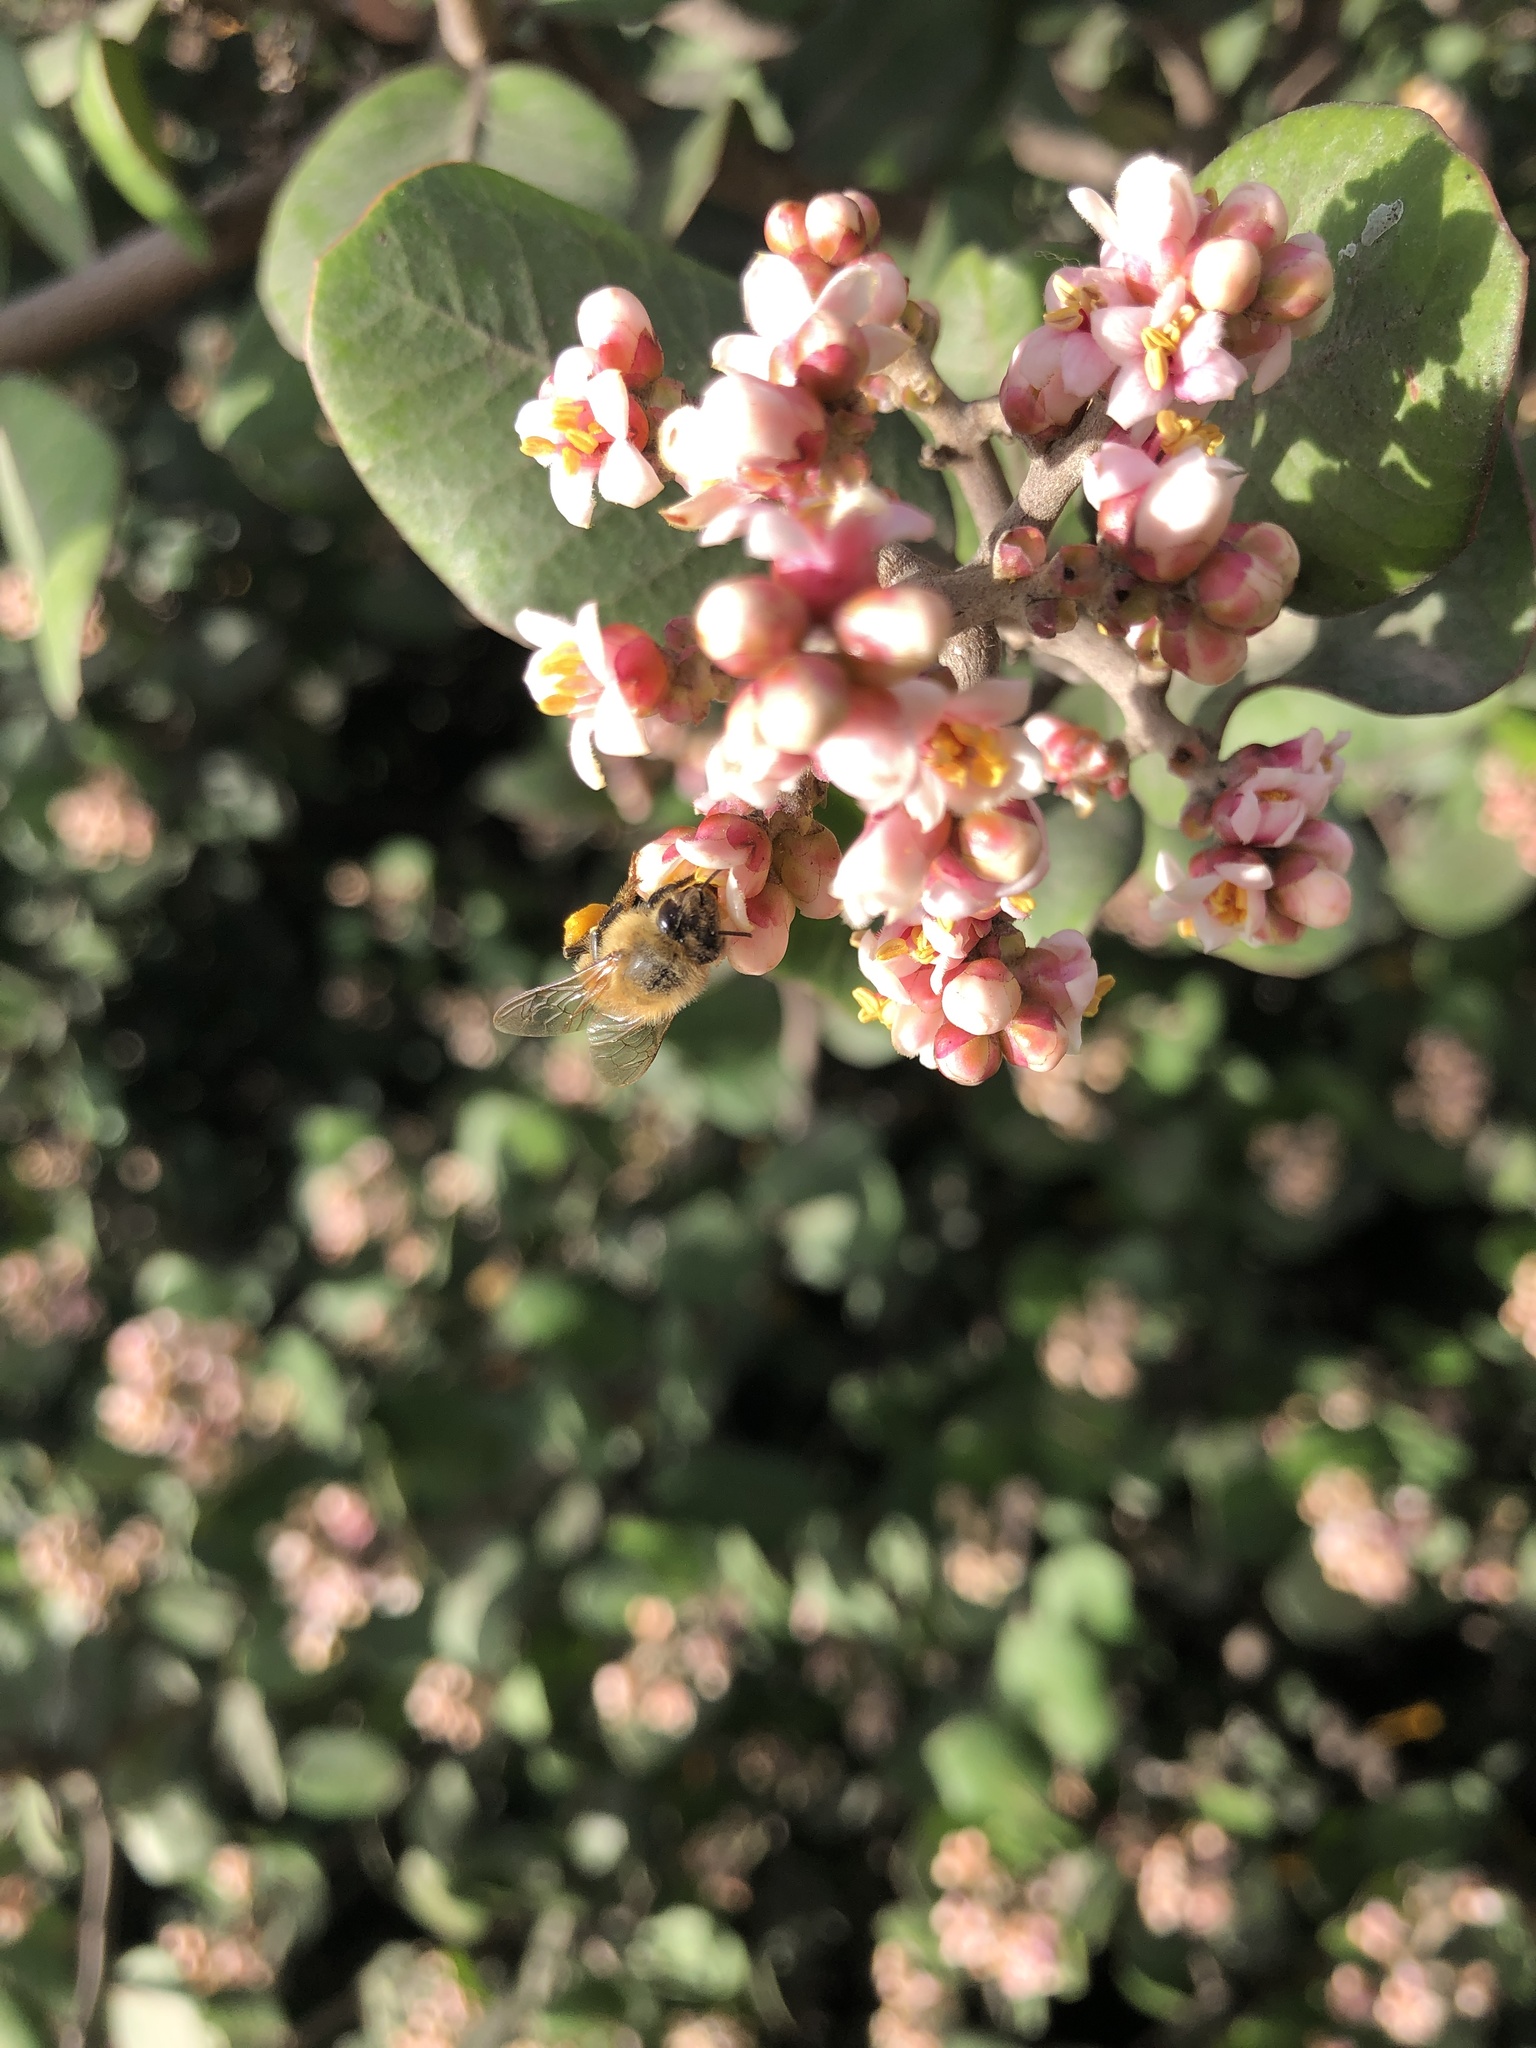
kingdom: Animalia
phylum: Arthropoda
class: Insecta
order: Hymenoptera
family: Apidae
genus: Apis
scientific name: Apis mellifera
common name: Honey bee
